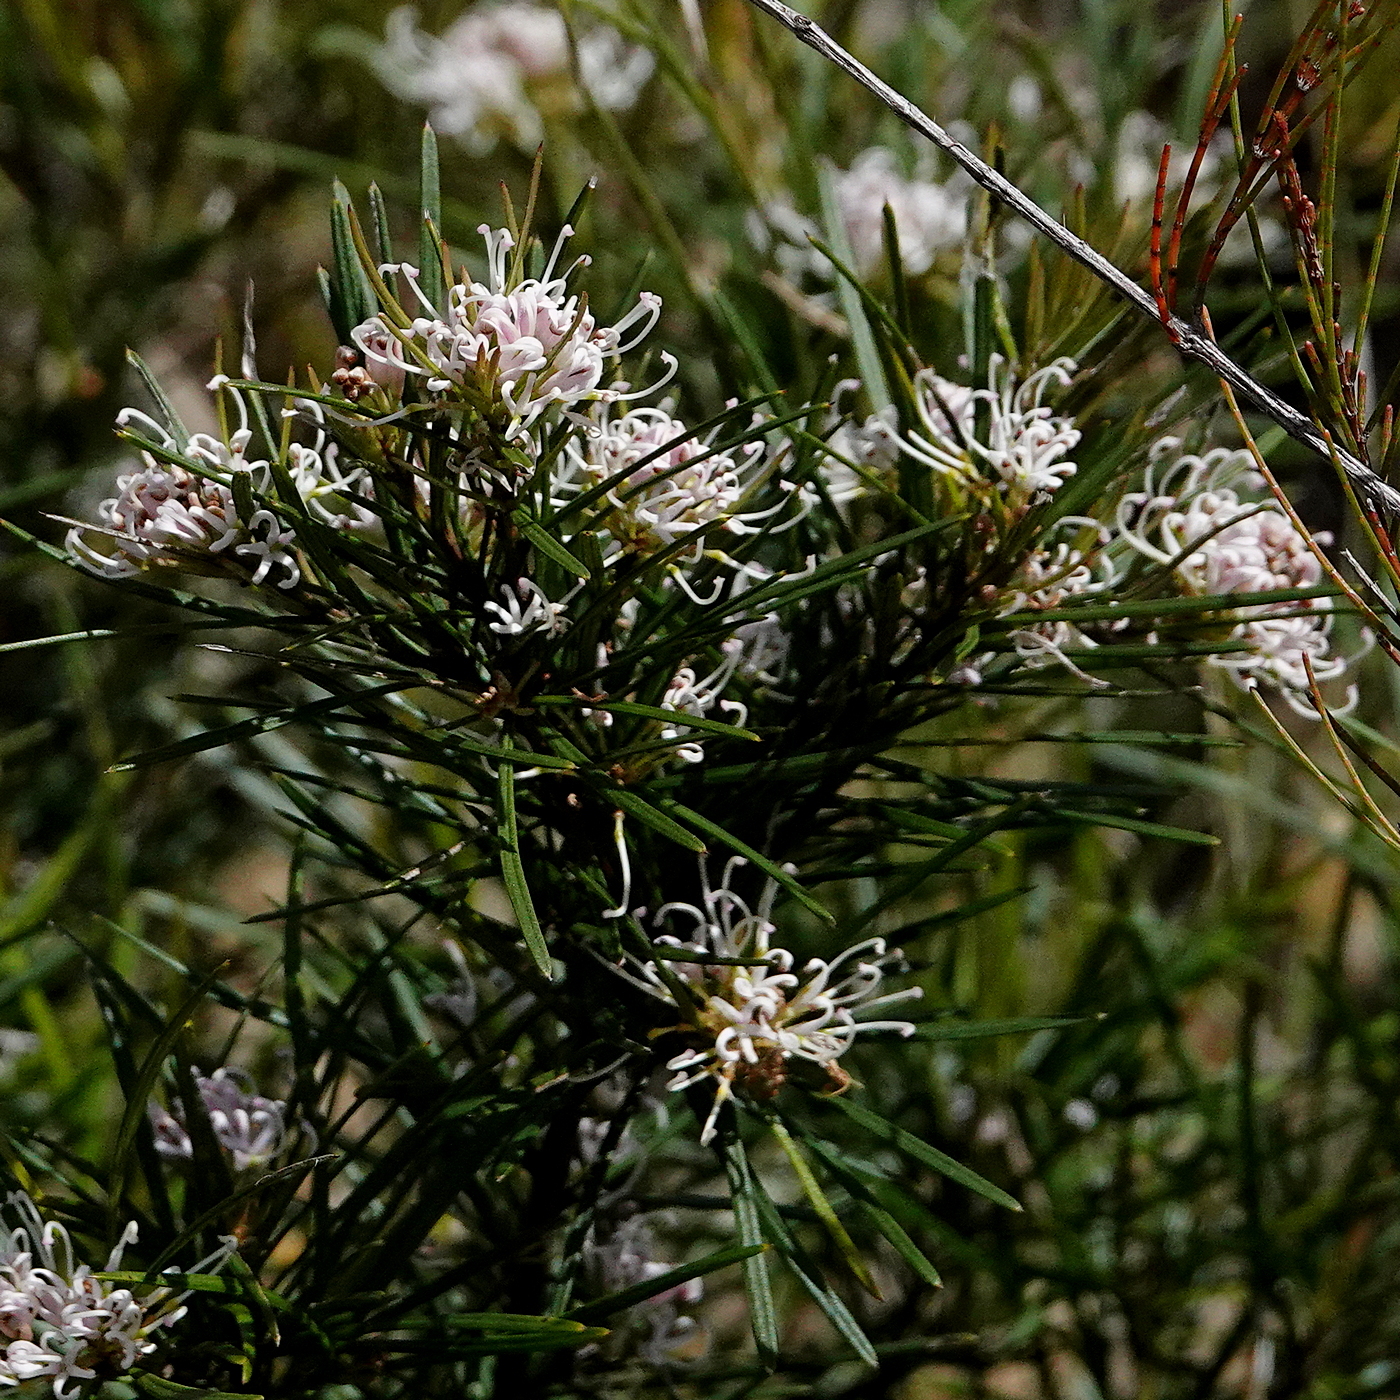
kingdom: Plantae
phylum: Tracheophyta
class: Magnoliopsida
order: Proteales
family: Proteaceae
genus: Grevillea
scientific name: Grevillea neurophylla
